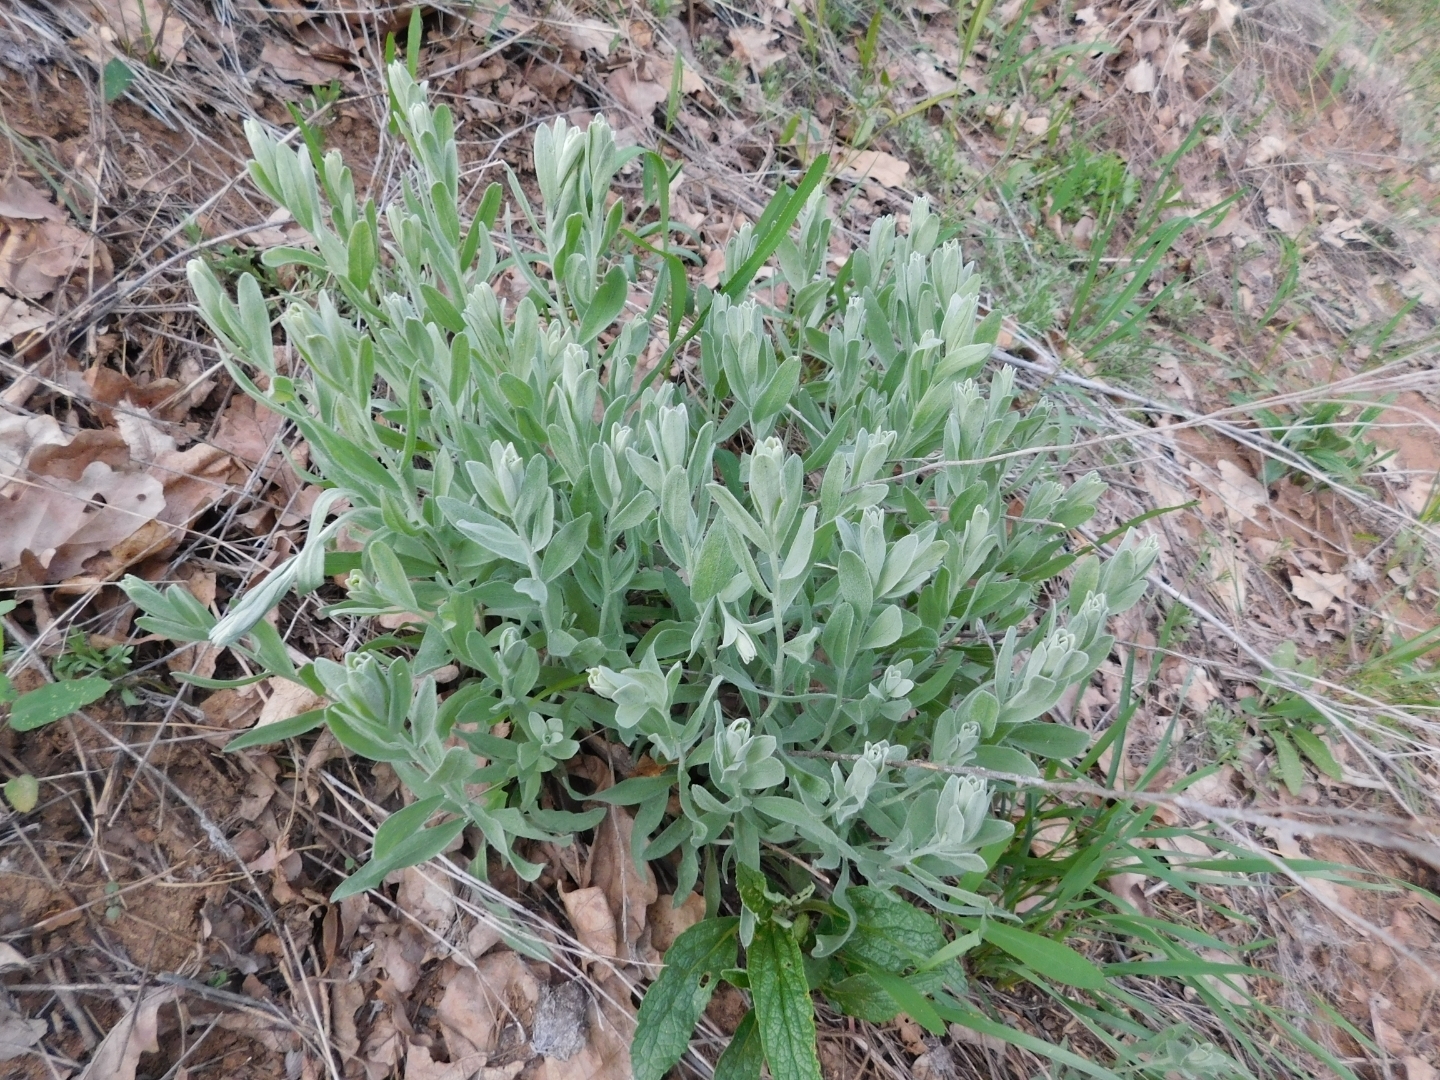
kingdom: Plantae
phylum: Tracheophyta
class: Magnoliopsida
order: Asterales
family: Asteraceae
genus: Galatella
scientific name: Galatella villosa
